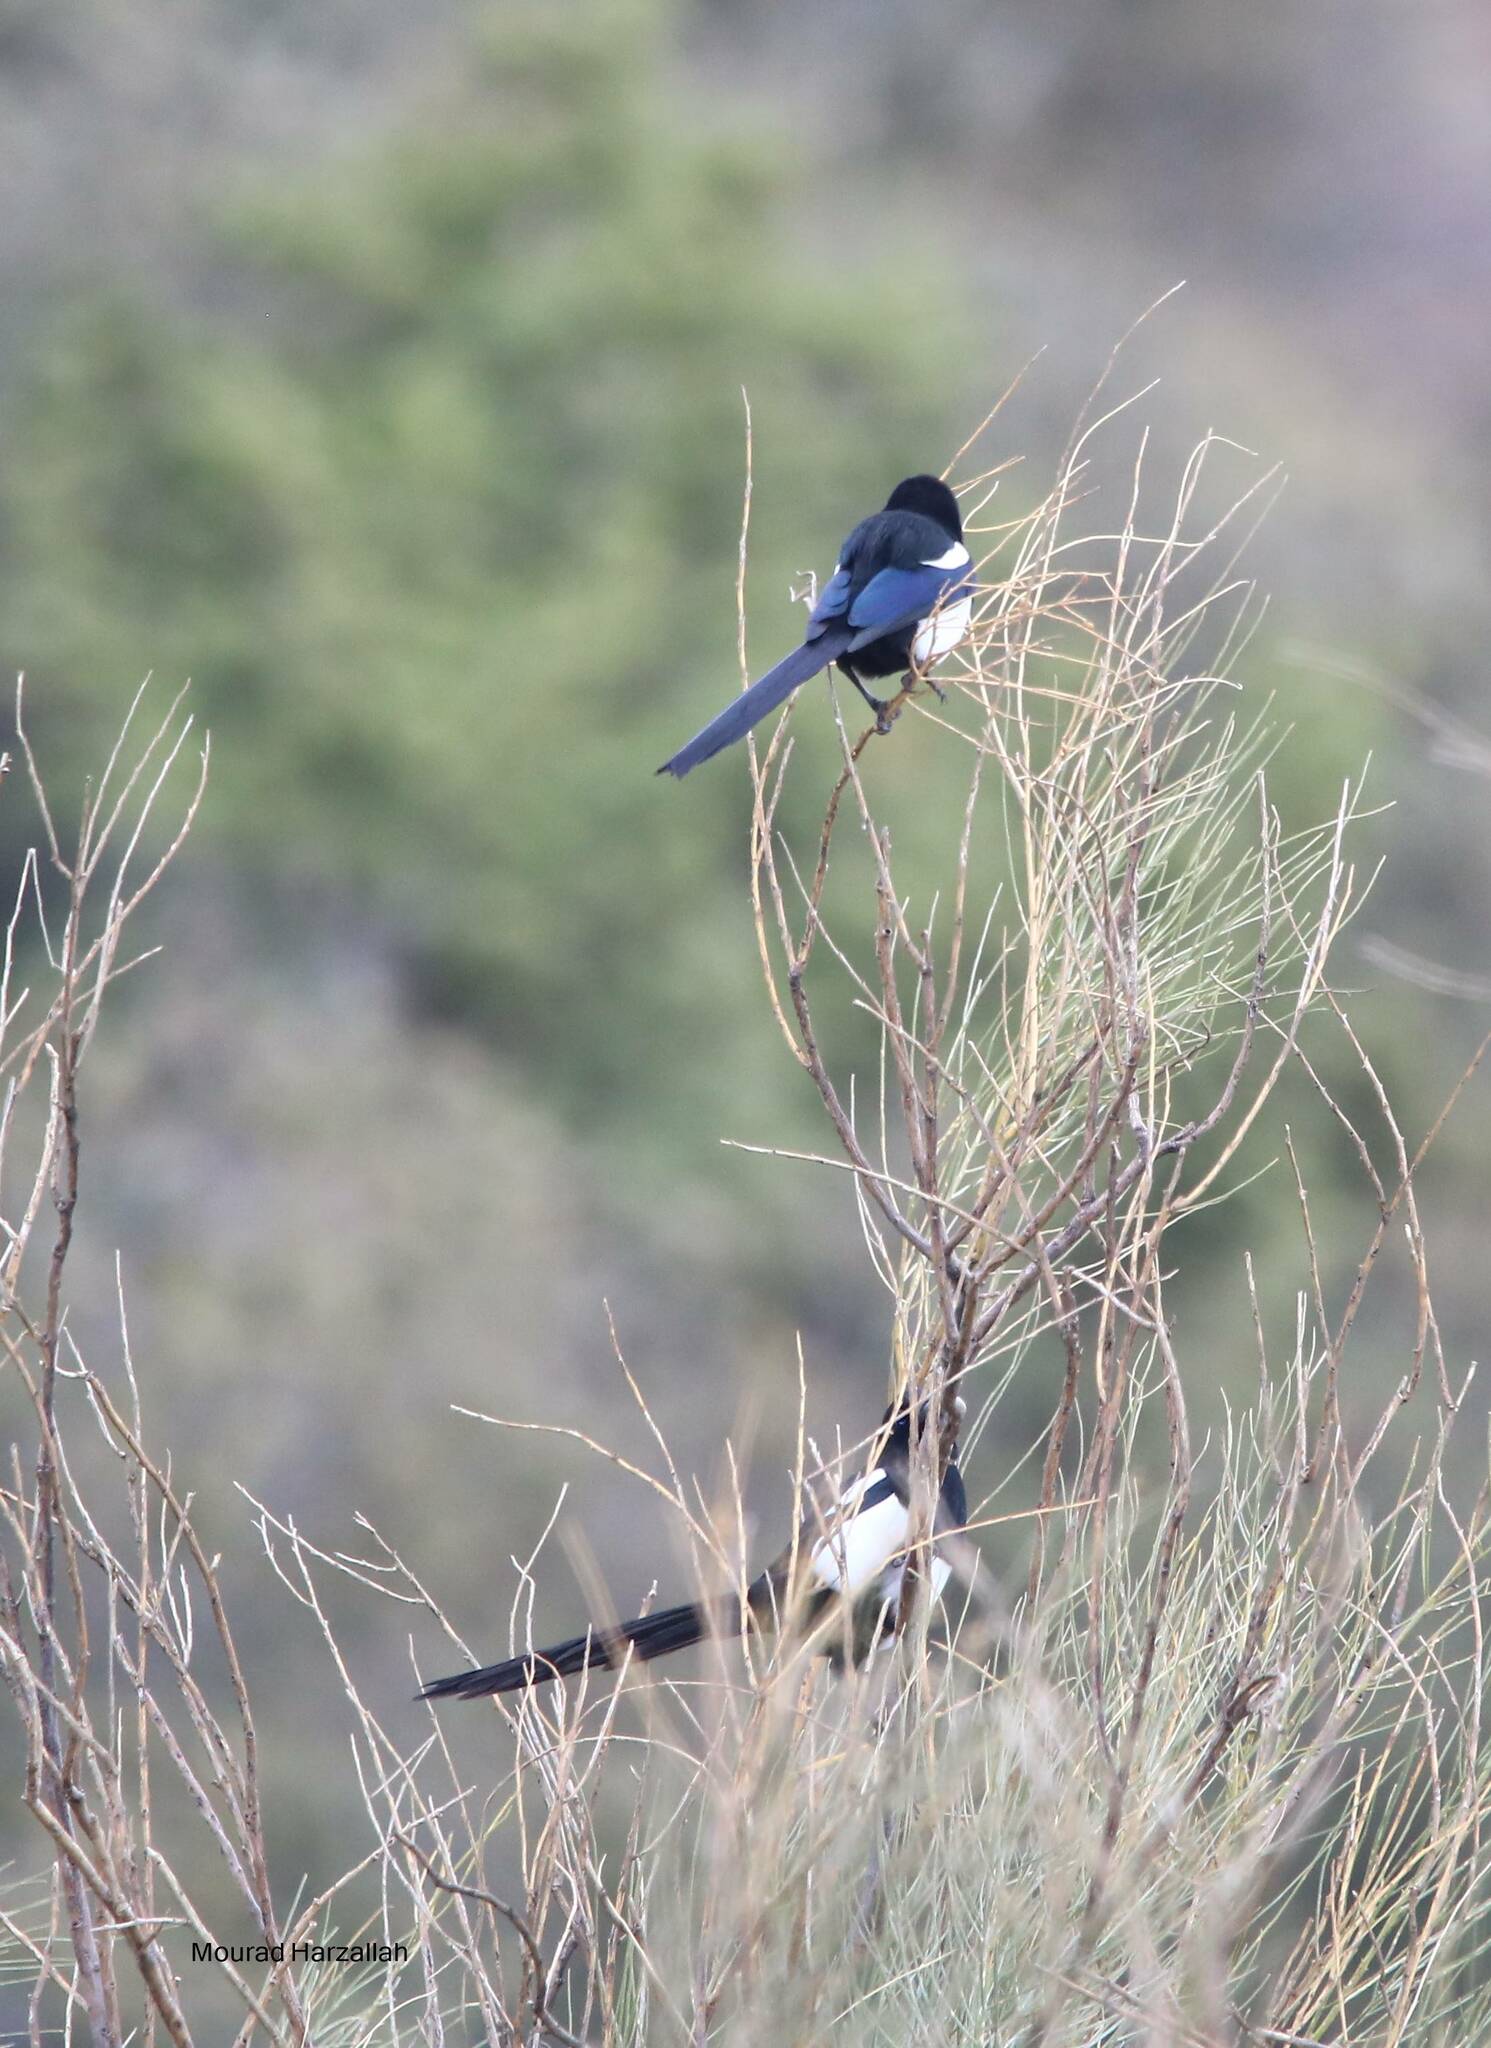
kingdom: Animalia
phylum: Chordata
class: Aves
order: Passeriformes
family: Corvidae
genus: Pica
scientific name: Pica mauritanica
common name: Maghreb magpie
